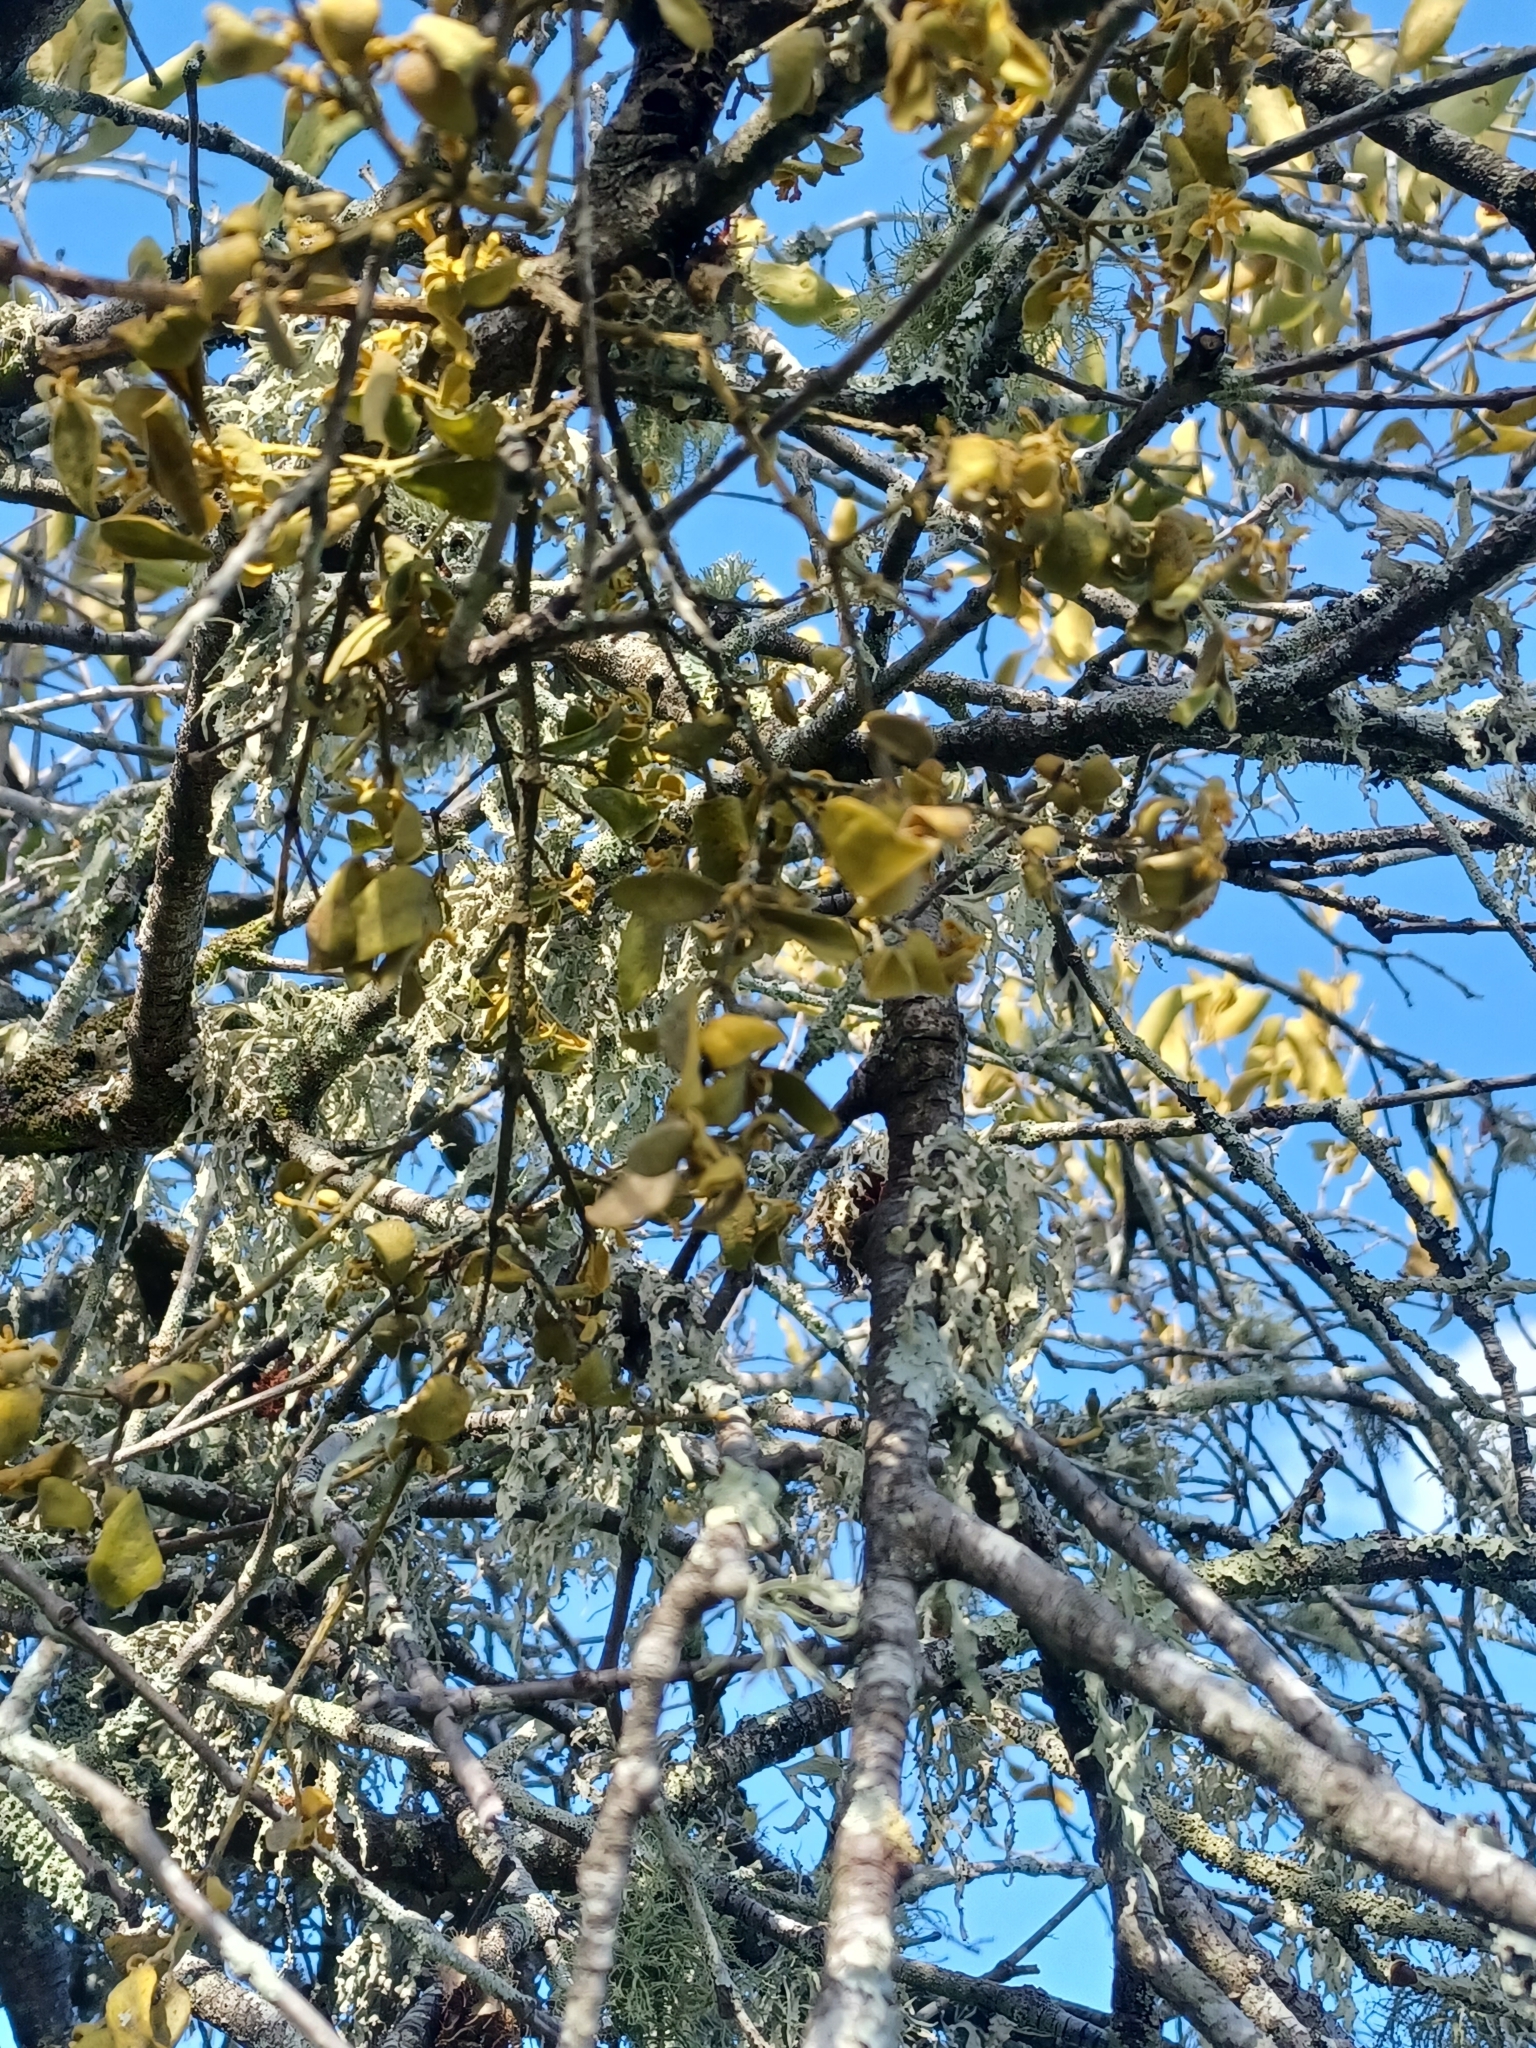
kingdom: Plantae
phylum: Tracheophyta
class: Magnoliopsida
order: Santalales
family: Viscaceae
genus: Notothixos
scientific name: Notothixos subaureus
